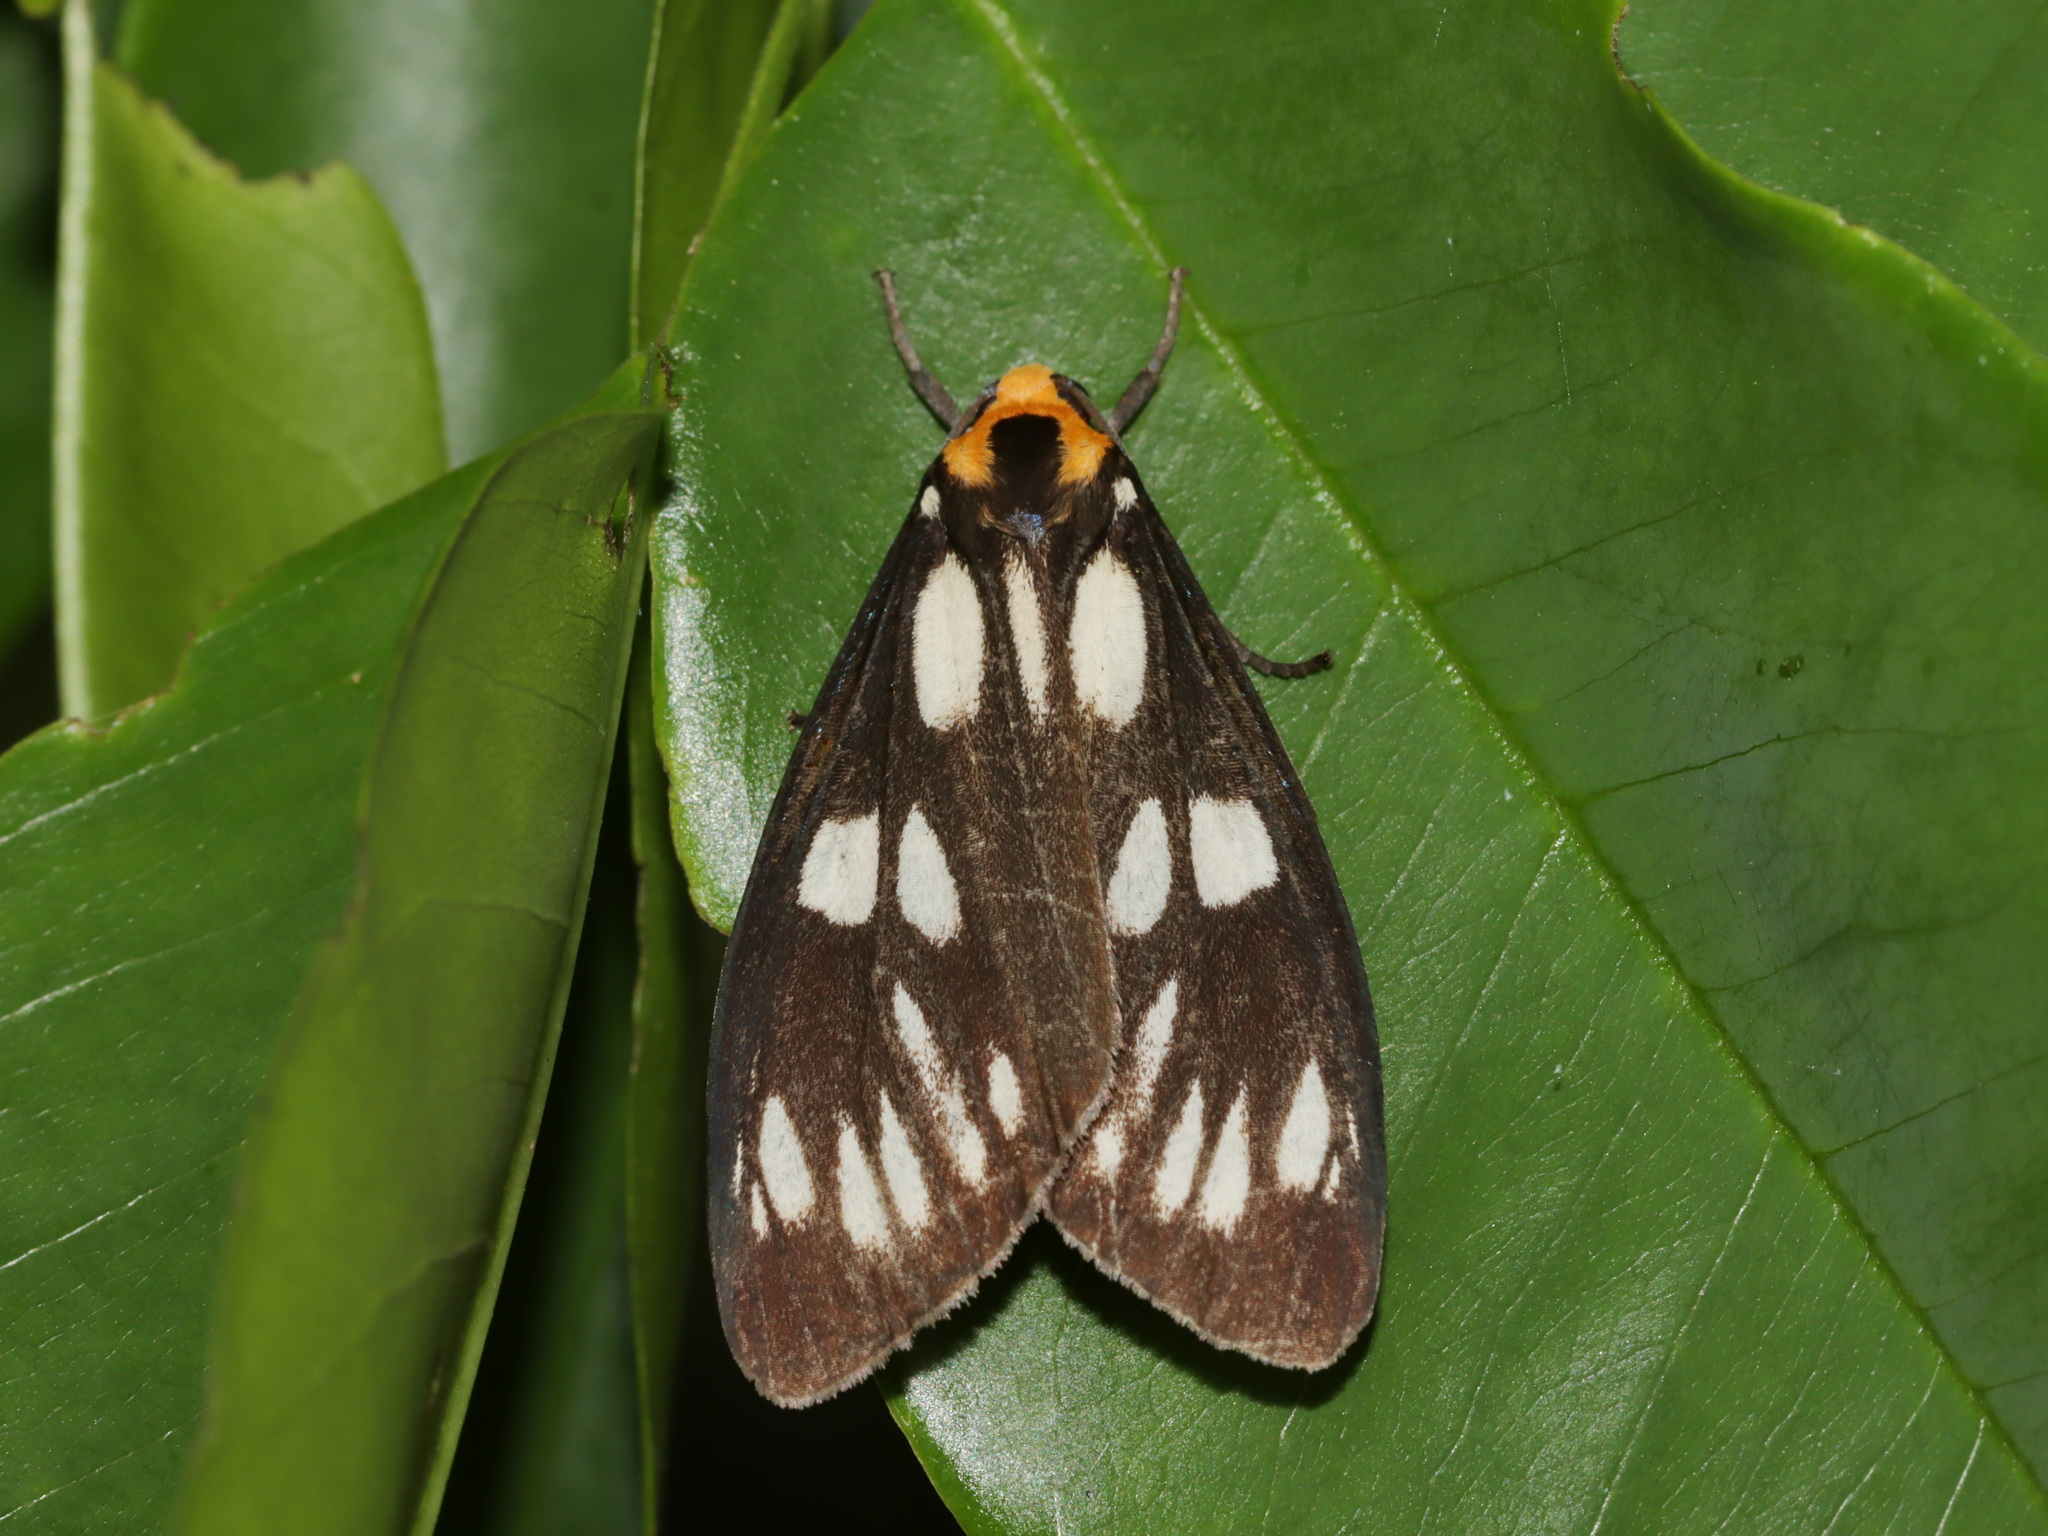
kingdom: Animalia
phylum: Arthropoda
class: Insecta
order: Lepidoptera
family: Erebidae
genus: Macrobrochis
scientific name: Macrobrochis gigas
